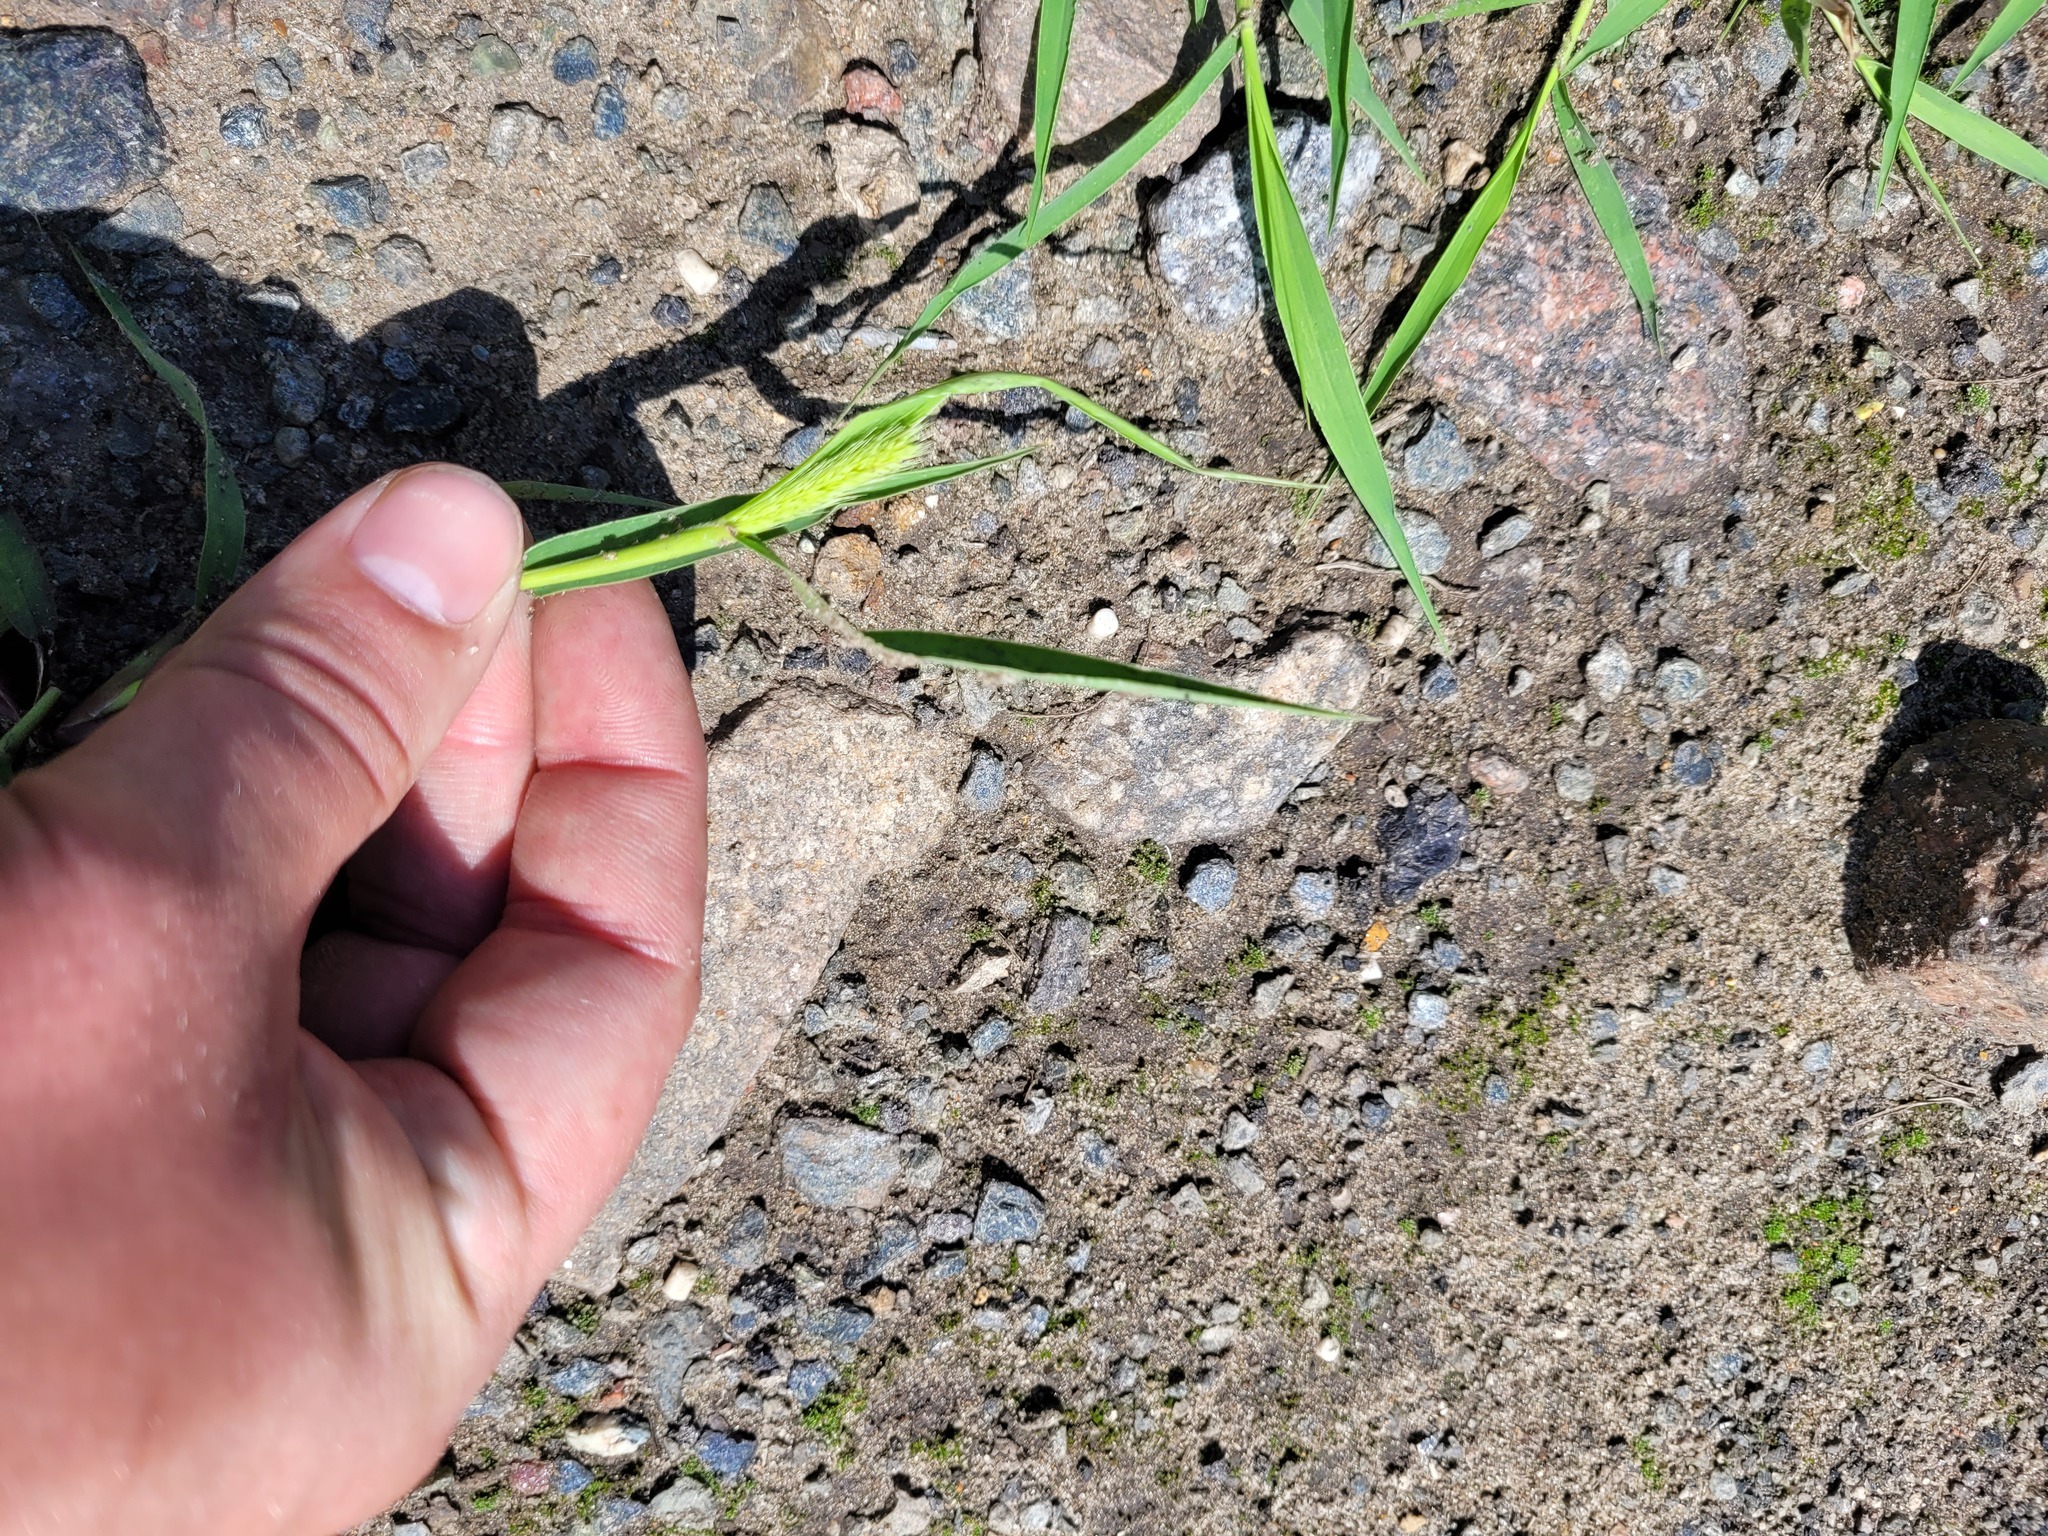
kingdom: Plantae
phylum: Tracheophyta
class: Liliopsida
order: Poales
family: Poaceae
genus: Setaria
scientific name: Setaria viridis
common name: Green bristlegrass
